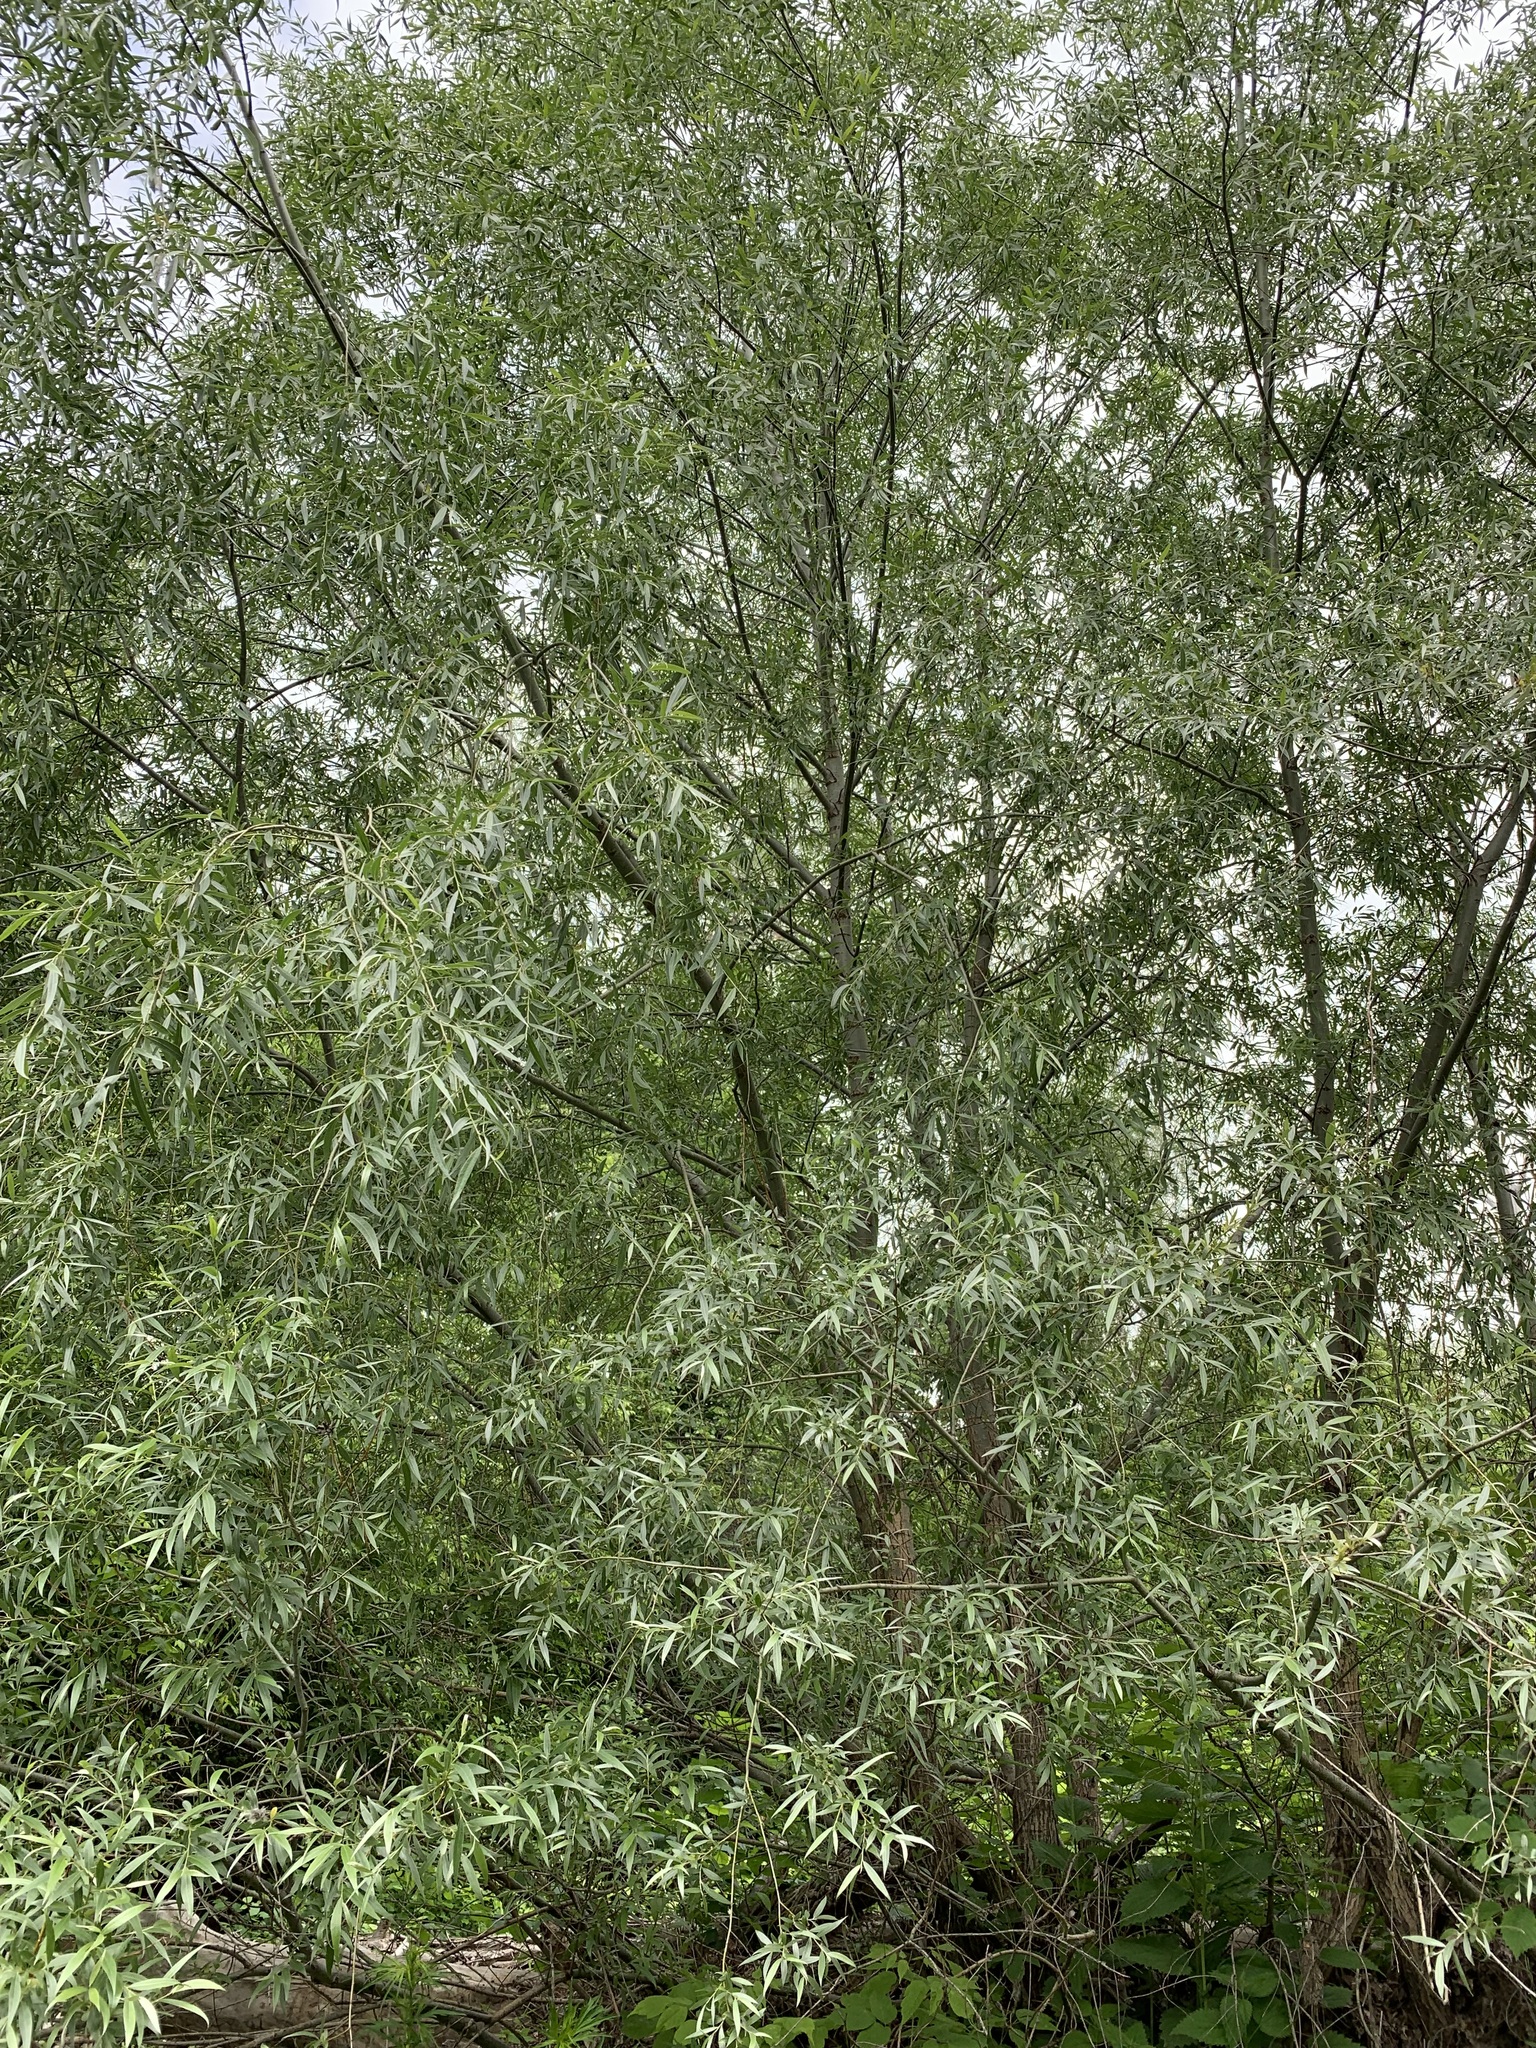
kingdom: Plantae
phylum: Tracheophyta
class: Magnoliopsida
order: Malpighiales
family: Salicaceae
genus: Salix
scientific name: Salix alba
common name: White willow
